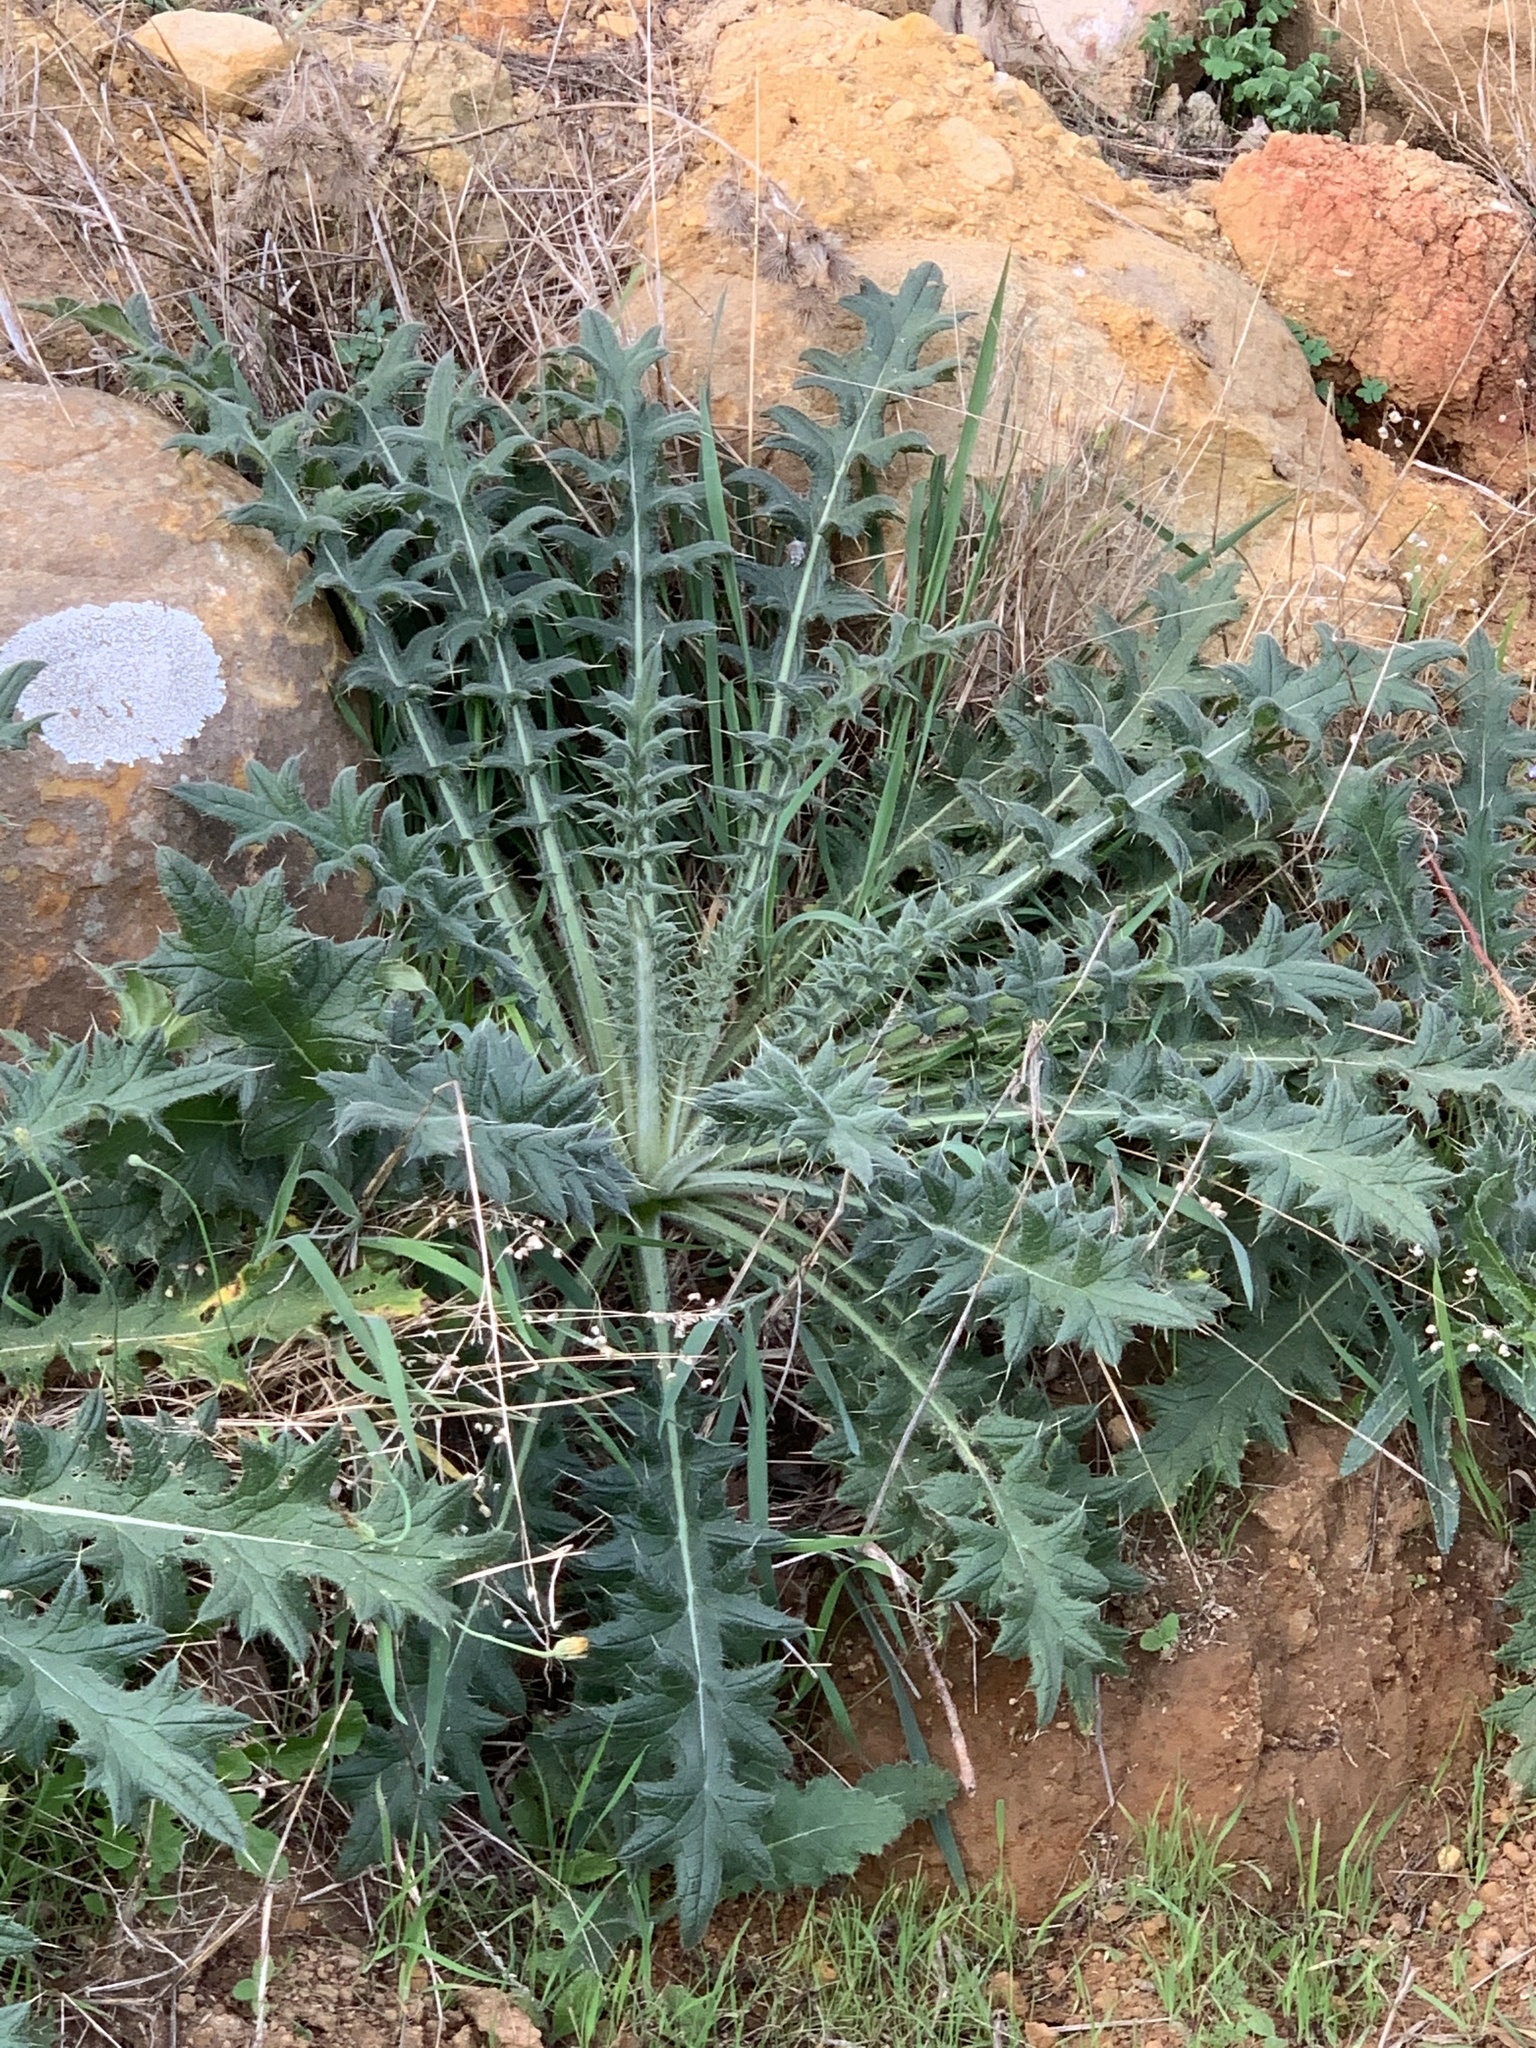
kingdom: Plantae
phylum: Tracheophyta
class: Magnoliopsida
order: Asterales
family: Asteraceae
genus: Cirsium
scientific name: Cirsium vulgare
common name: Bull thistle
